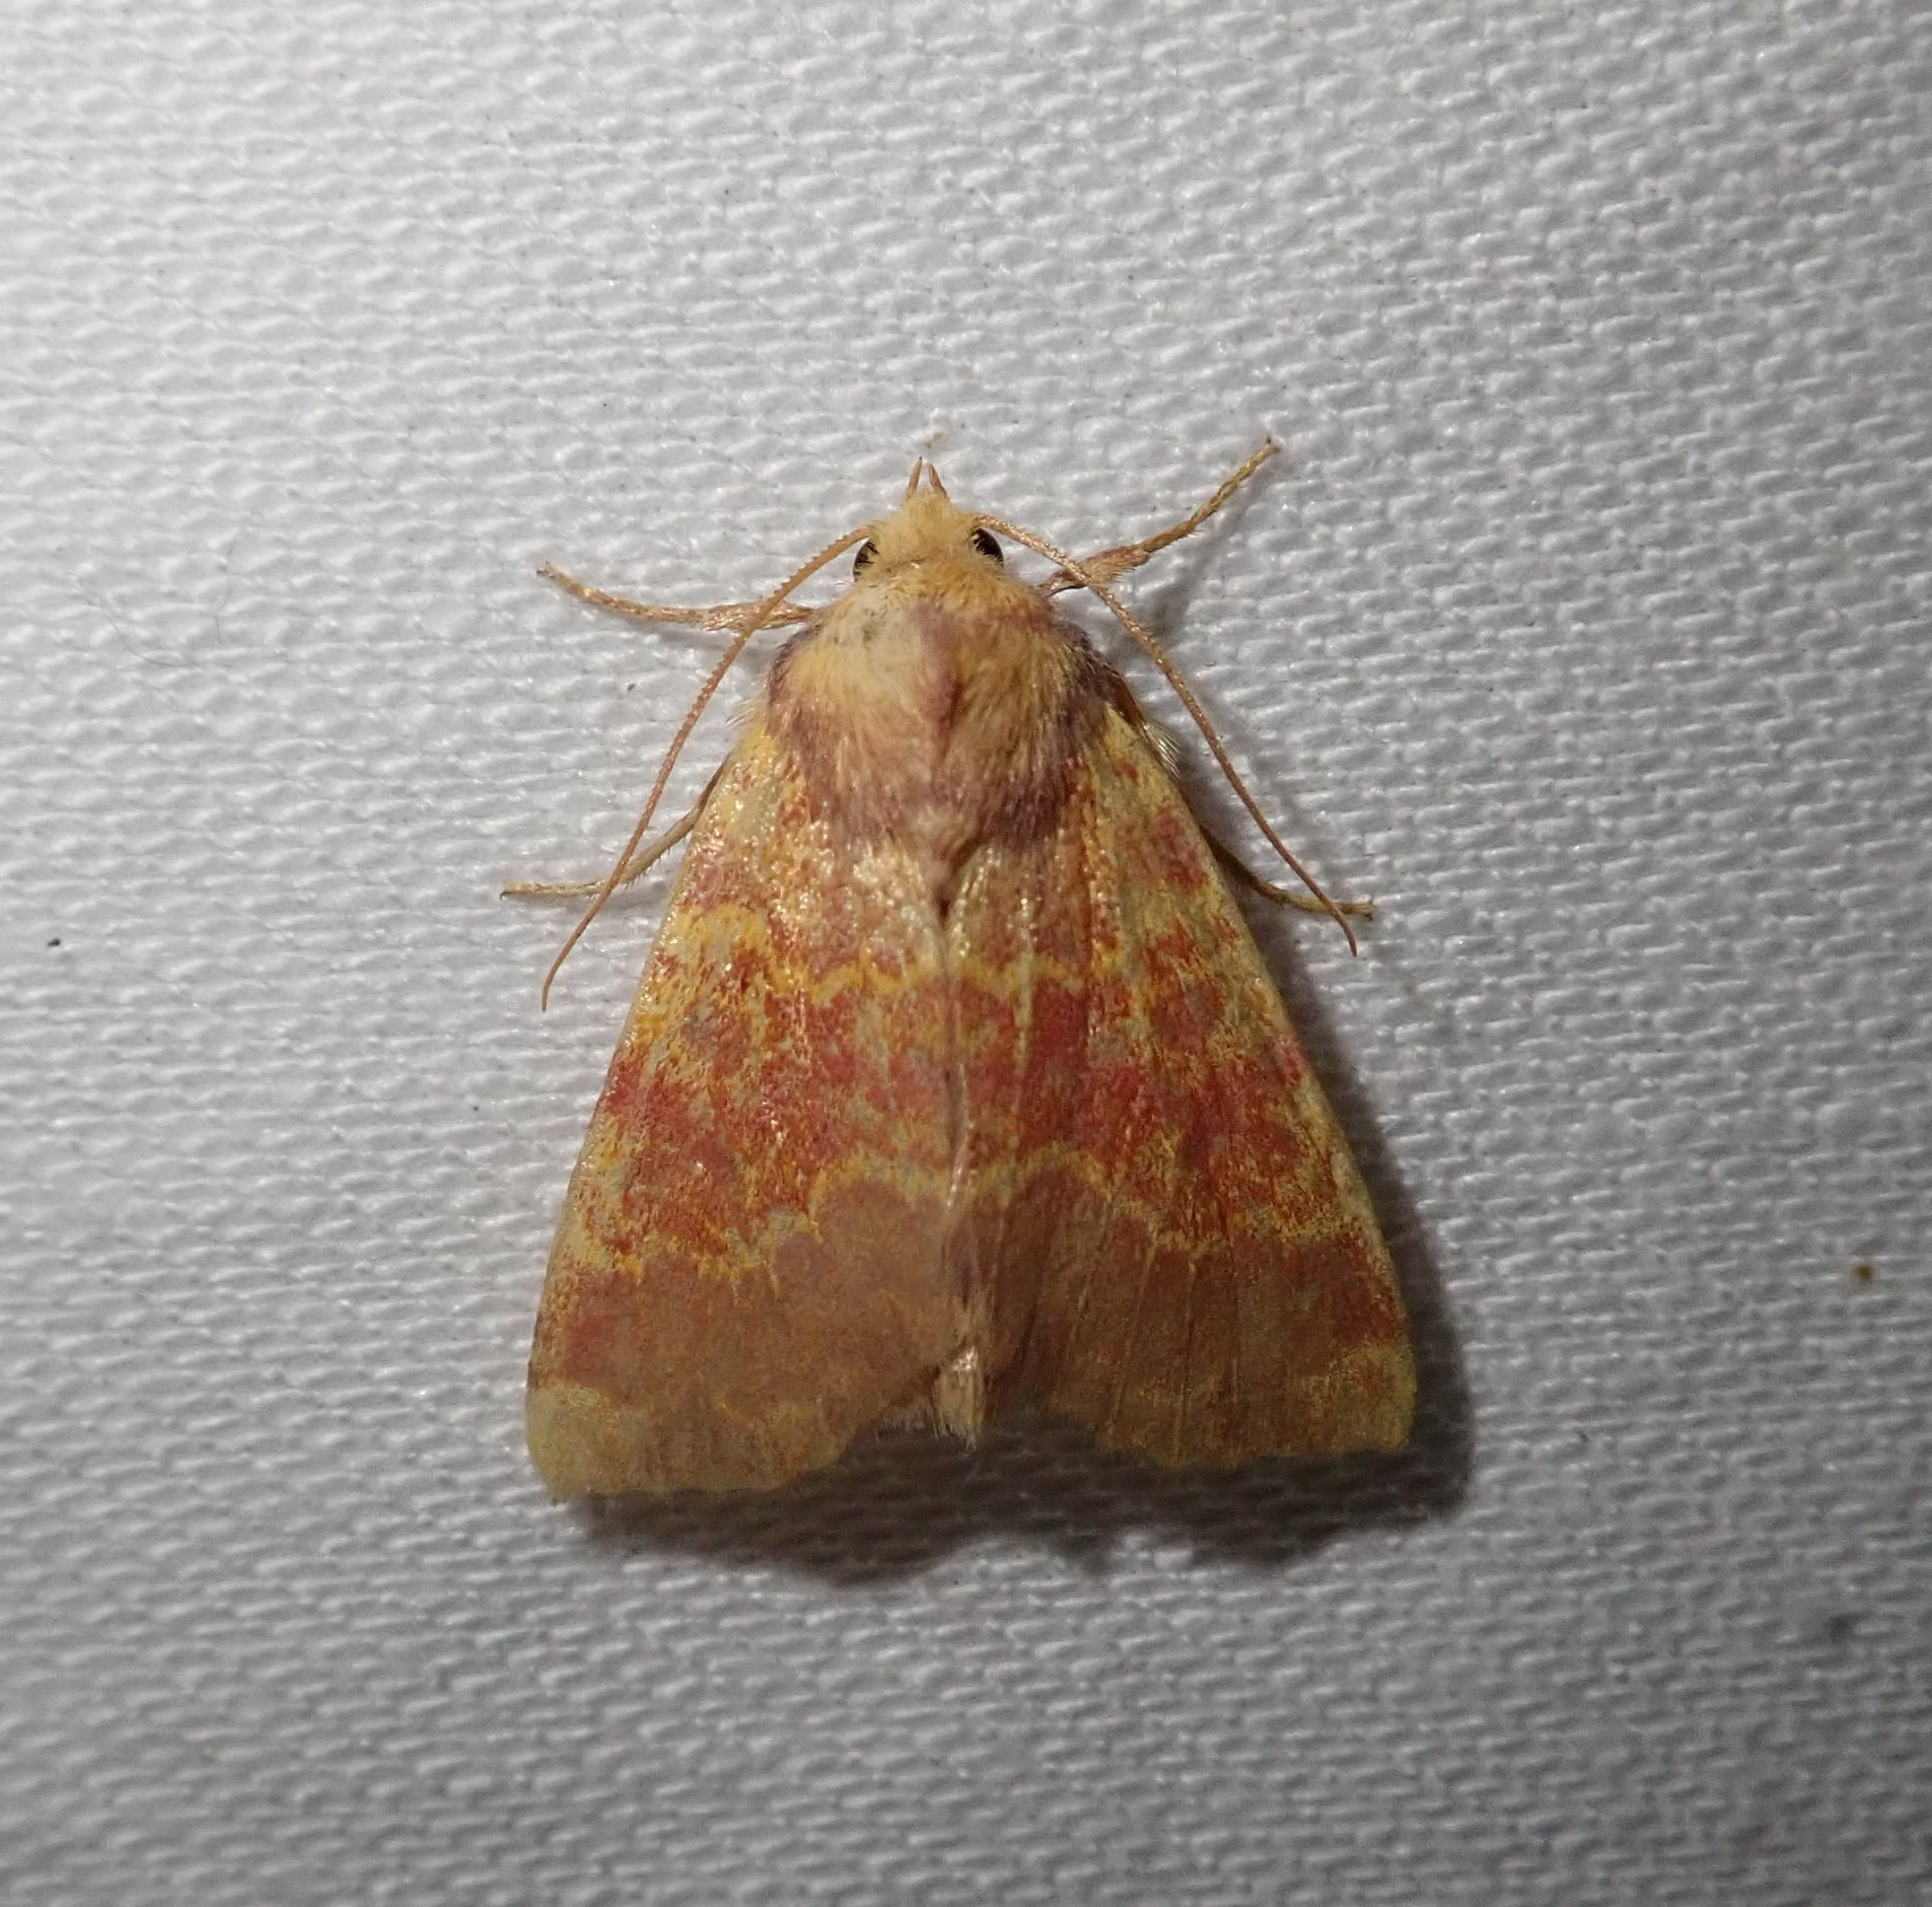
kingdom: Animalia
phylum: Arthropoda
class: Insecta
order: Lepidoptera
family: Noctuidae
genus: Tiliacea
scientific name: Tiliacea aurago
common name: Barred sallow
